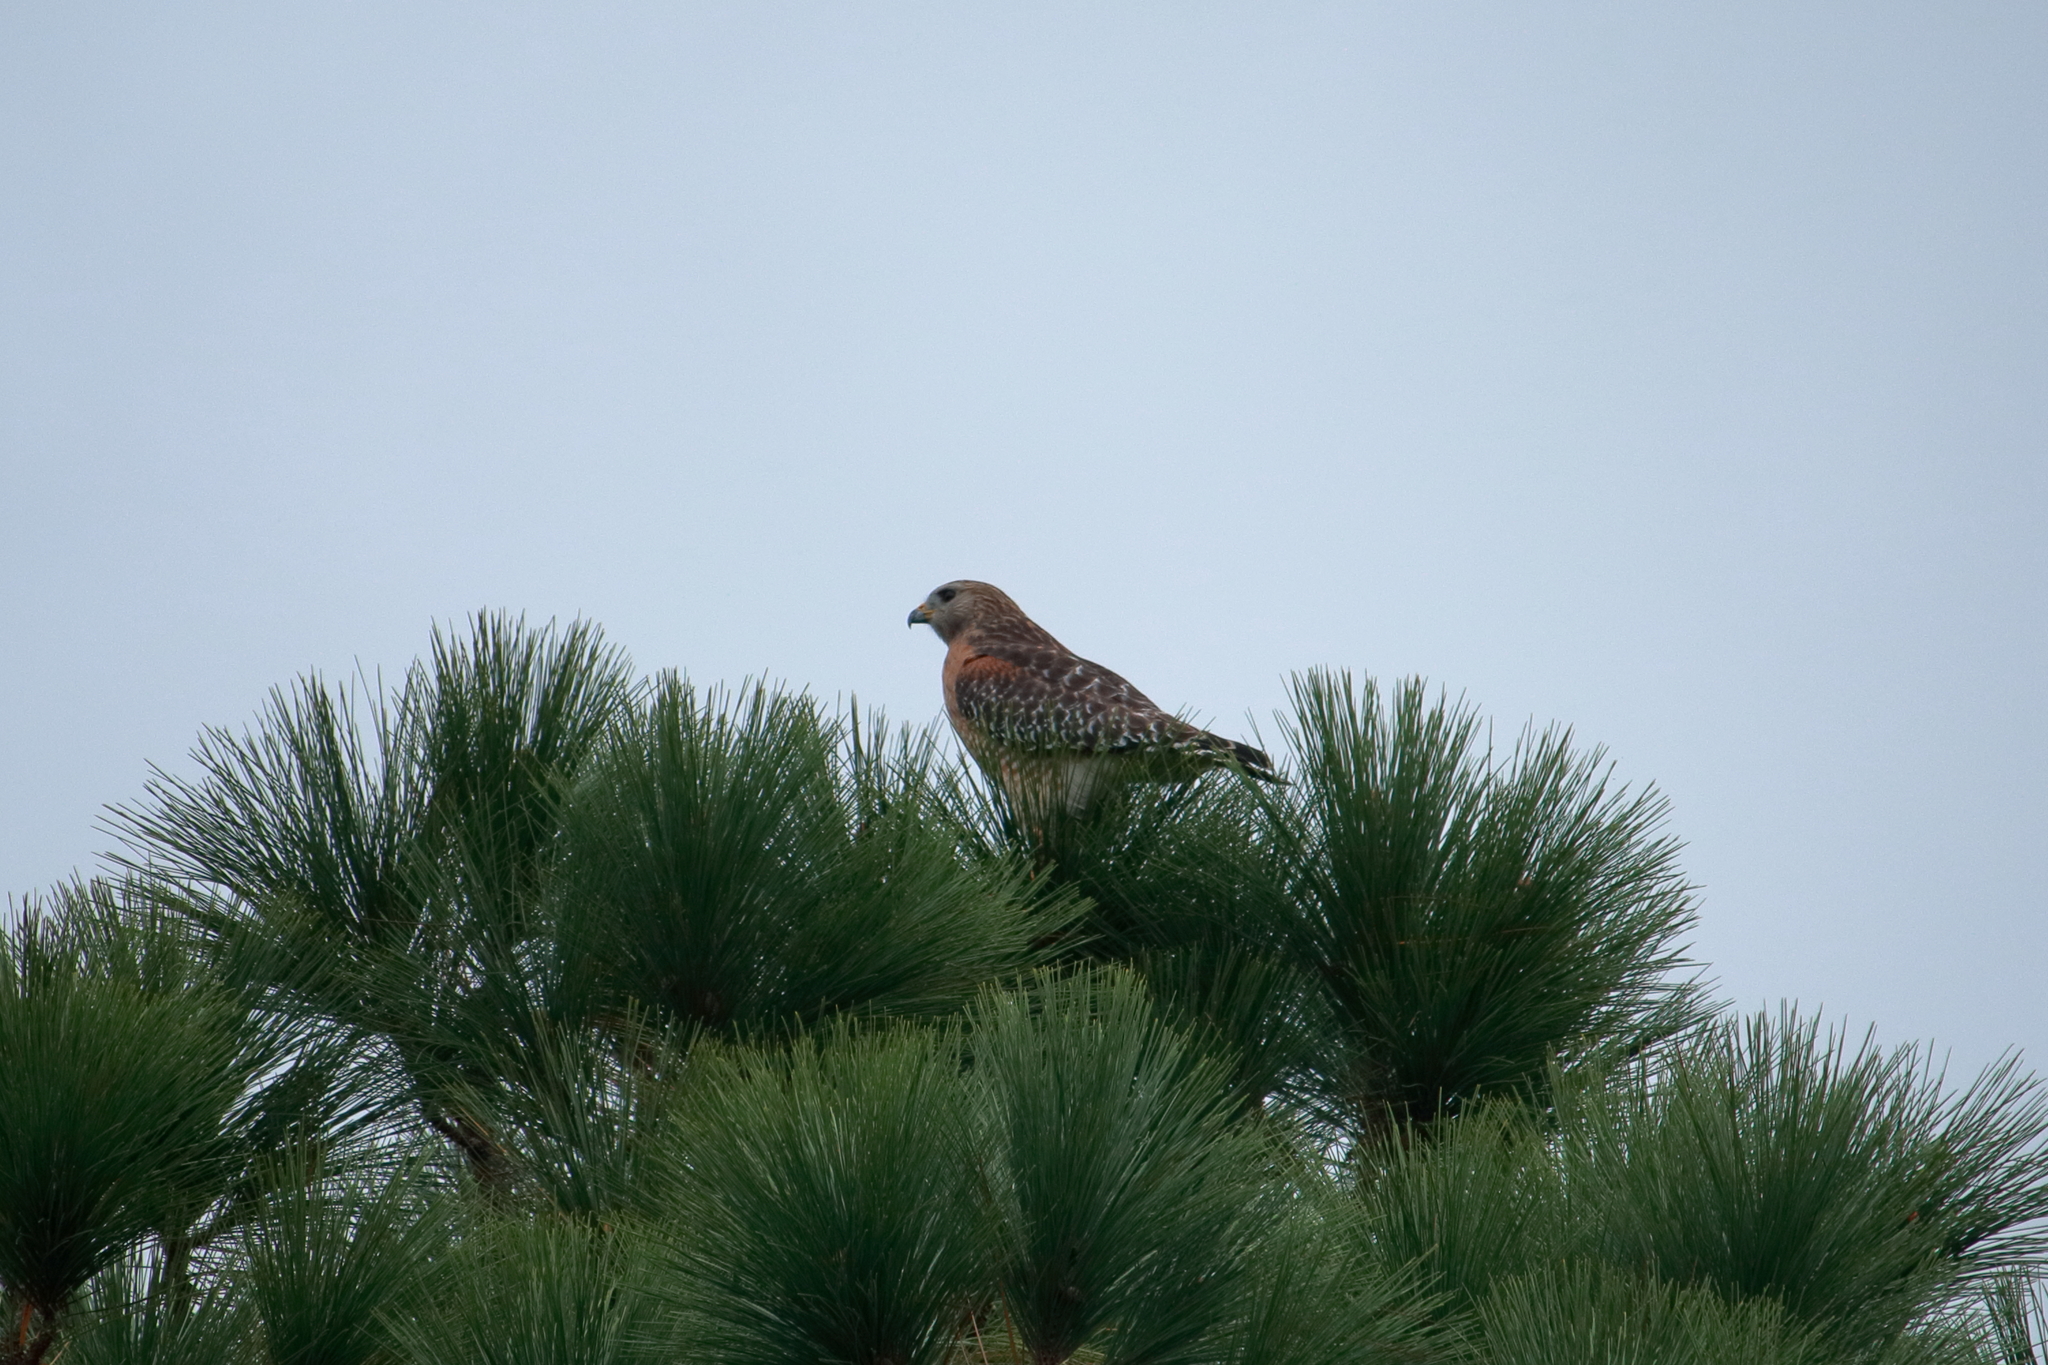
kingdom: Animalia
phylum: Chordata
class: Aves
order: Accipitriformes
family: Accipitridae
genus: Buteo
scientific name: Buteo lineatus
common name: Red-shouldered hawk
